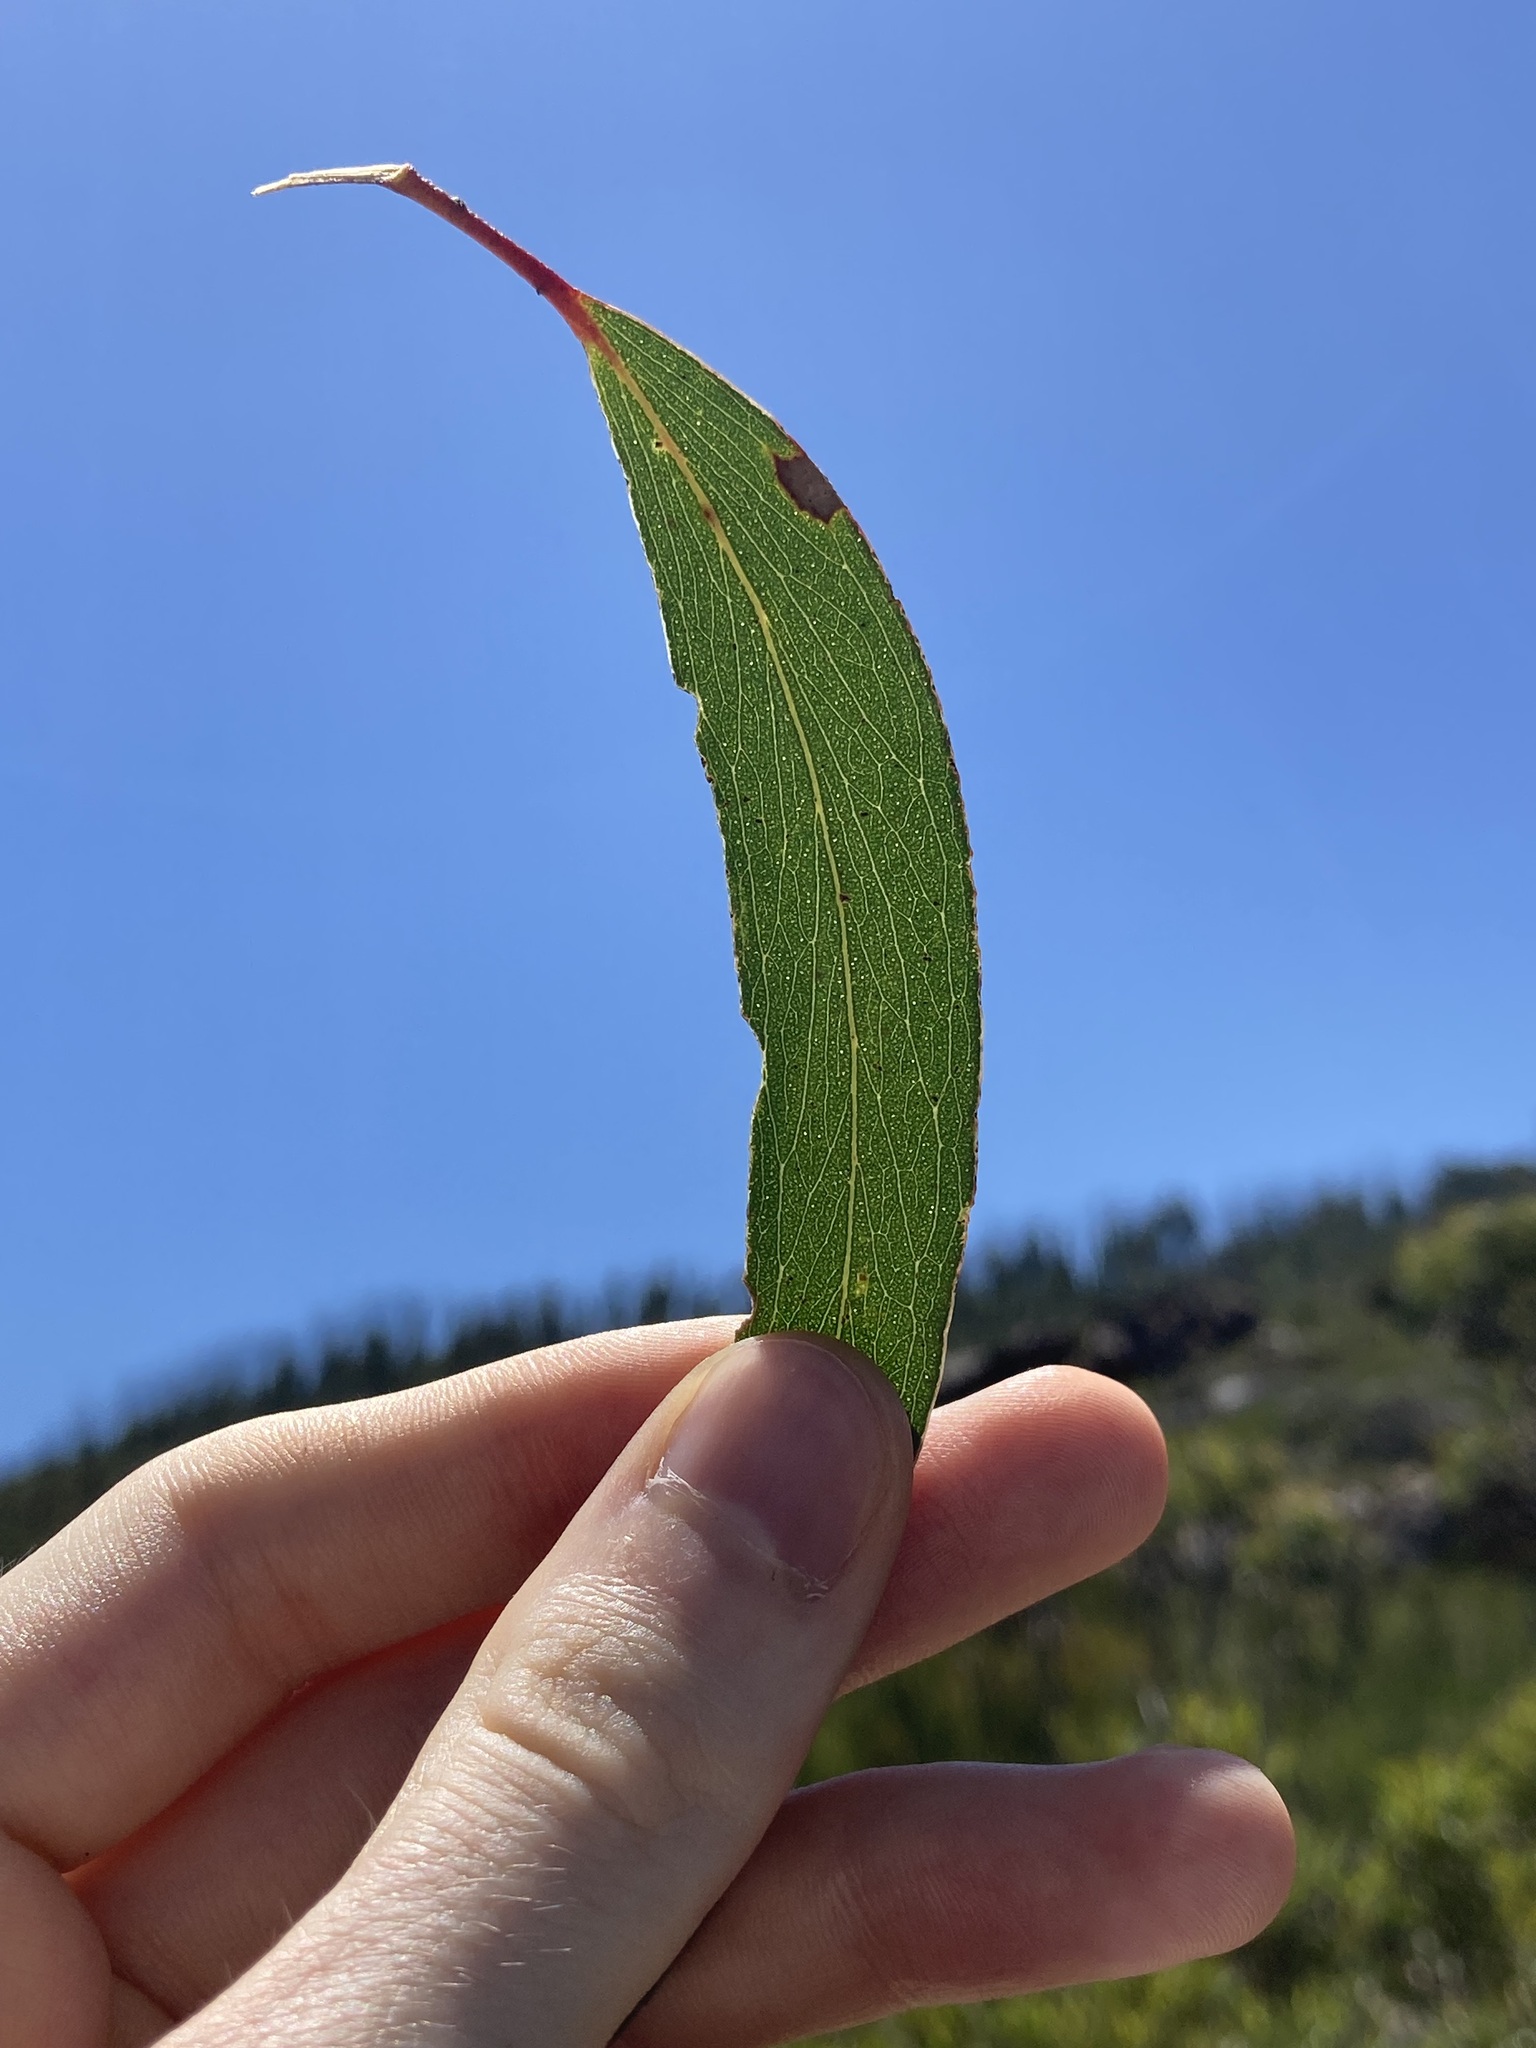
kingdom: Plantae
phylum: Tracheophyta
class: Magnoliopsida
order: Myrtales
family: Myrtaceae
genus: Eucalyptus
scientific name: Eucalyptus sieberi
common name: Black-ash
